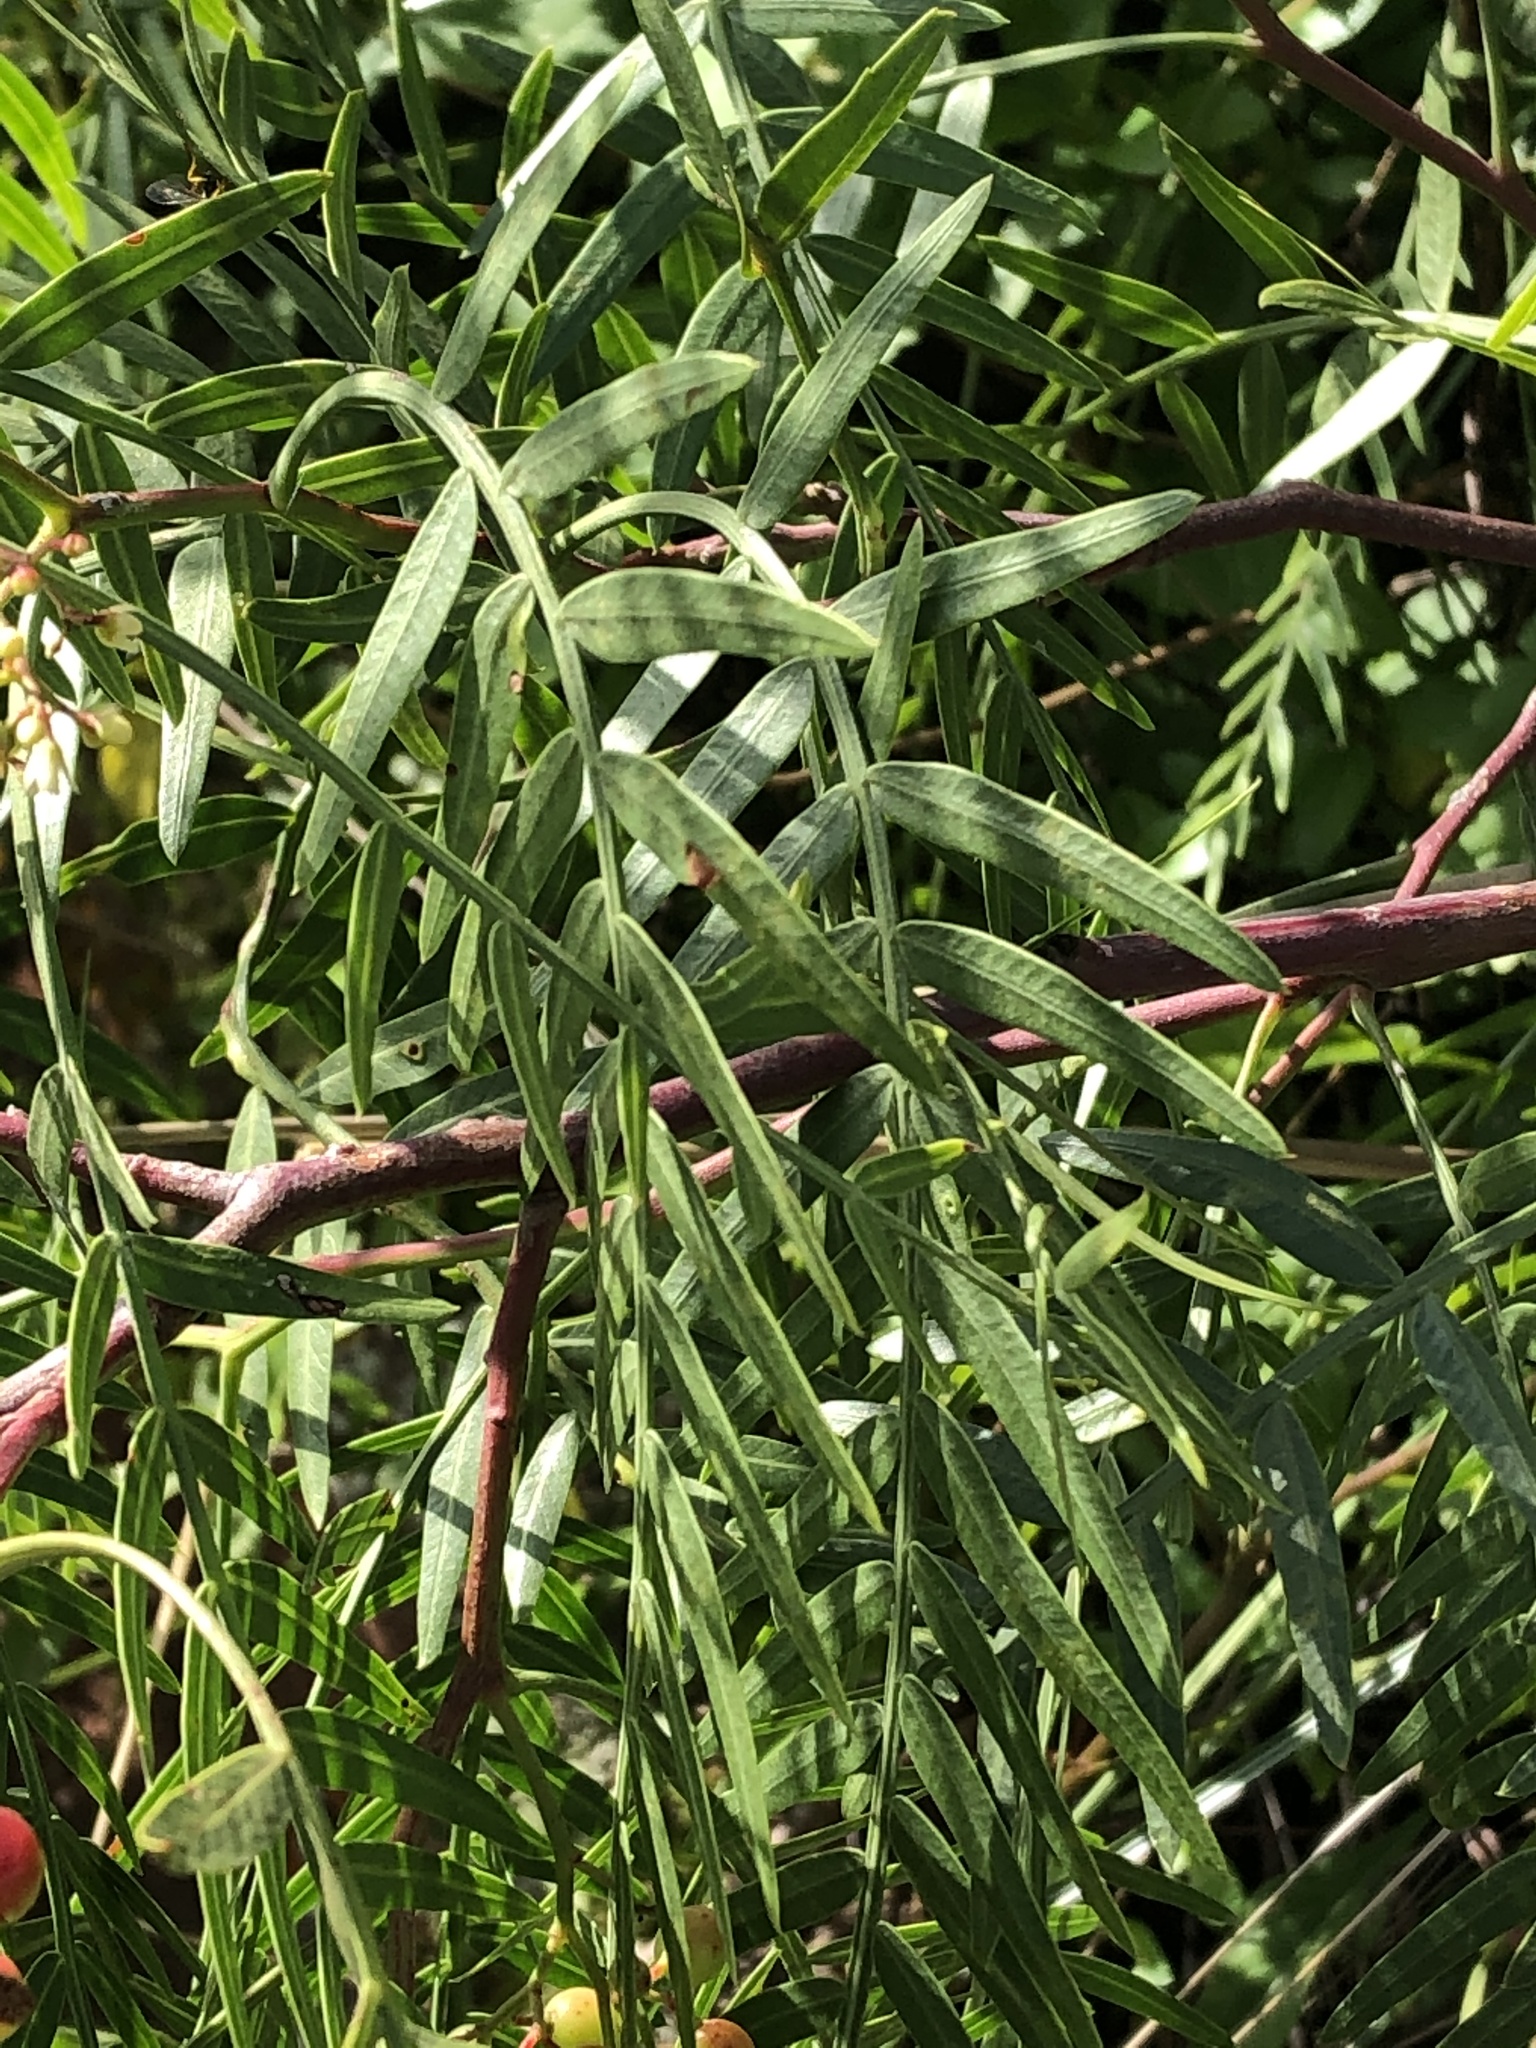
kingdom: Plantae
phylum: Tracheophyta
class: Magnoliopsida
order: Sapindales
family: Anacardiaceae
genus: Schinus
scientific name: Schinus molle
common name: Peruvian peppertree
